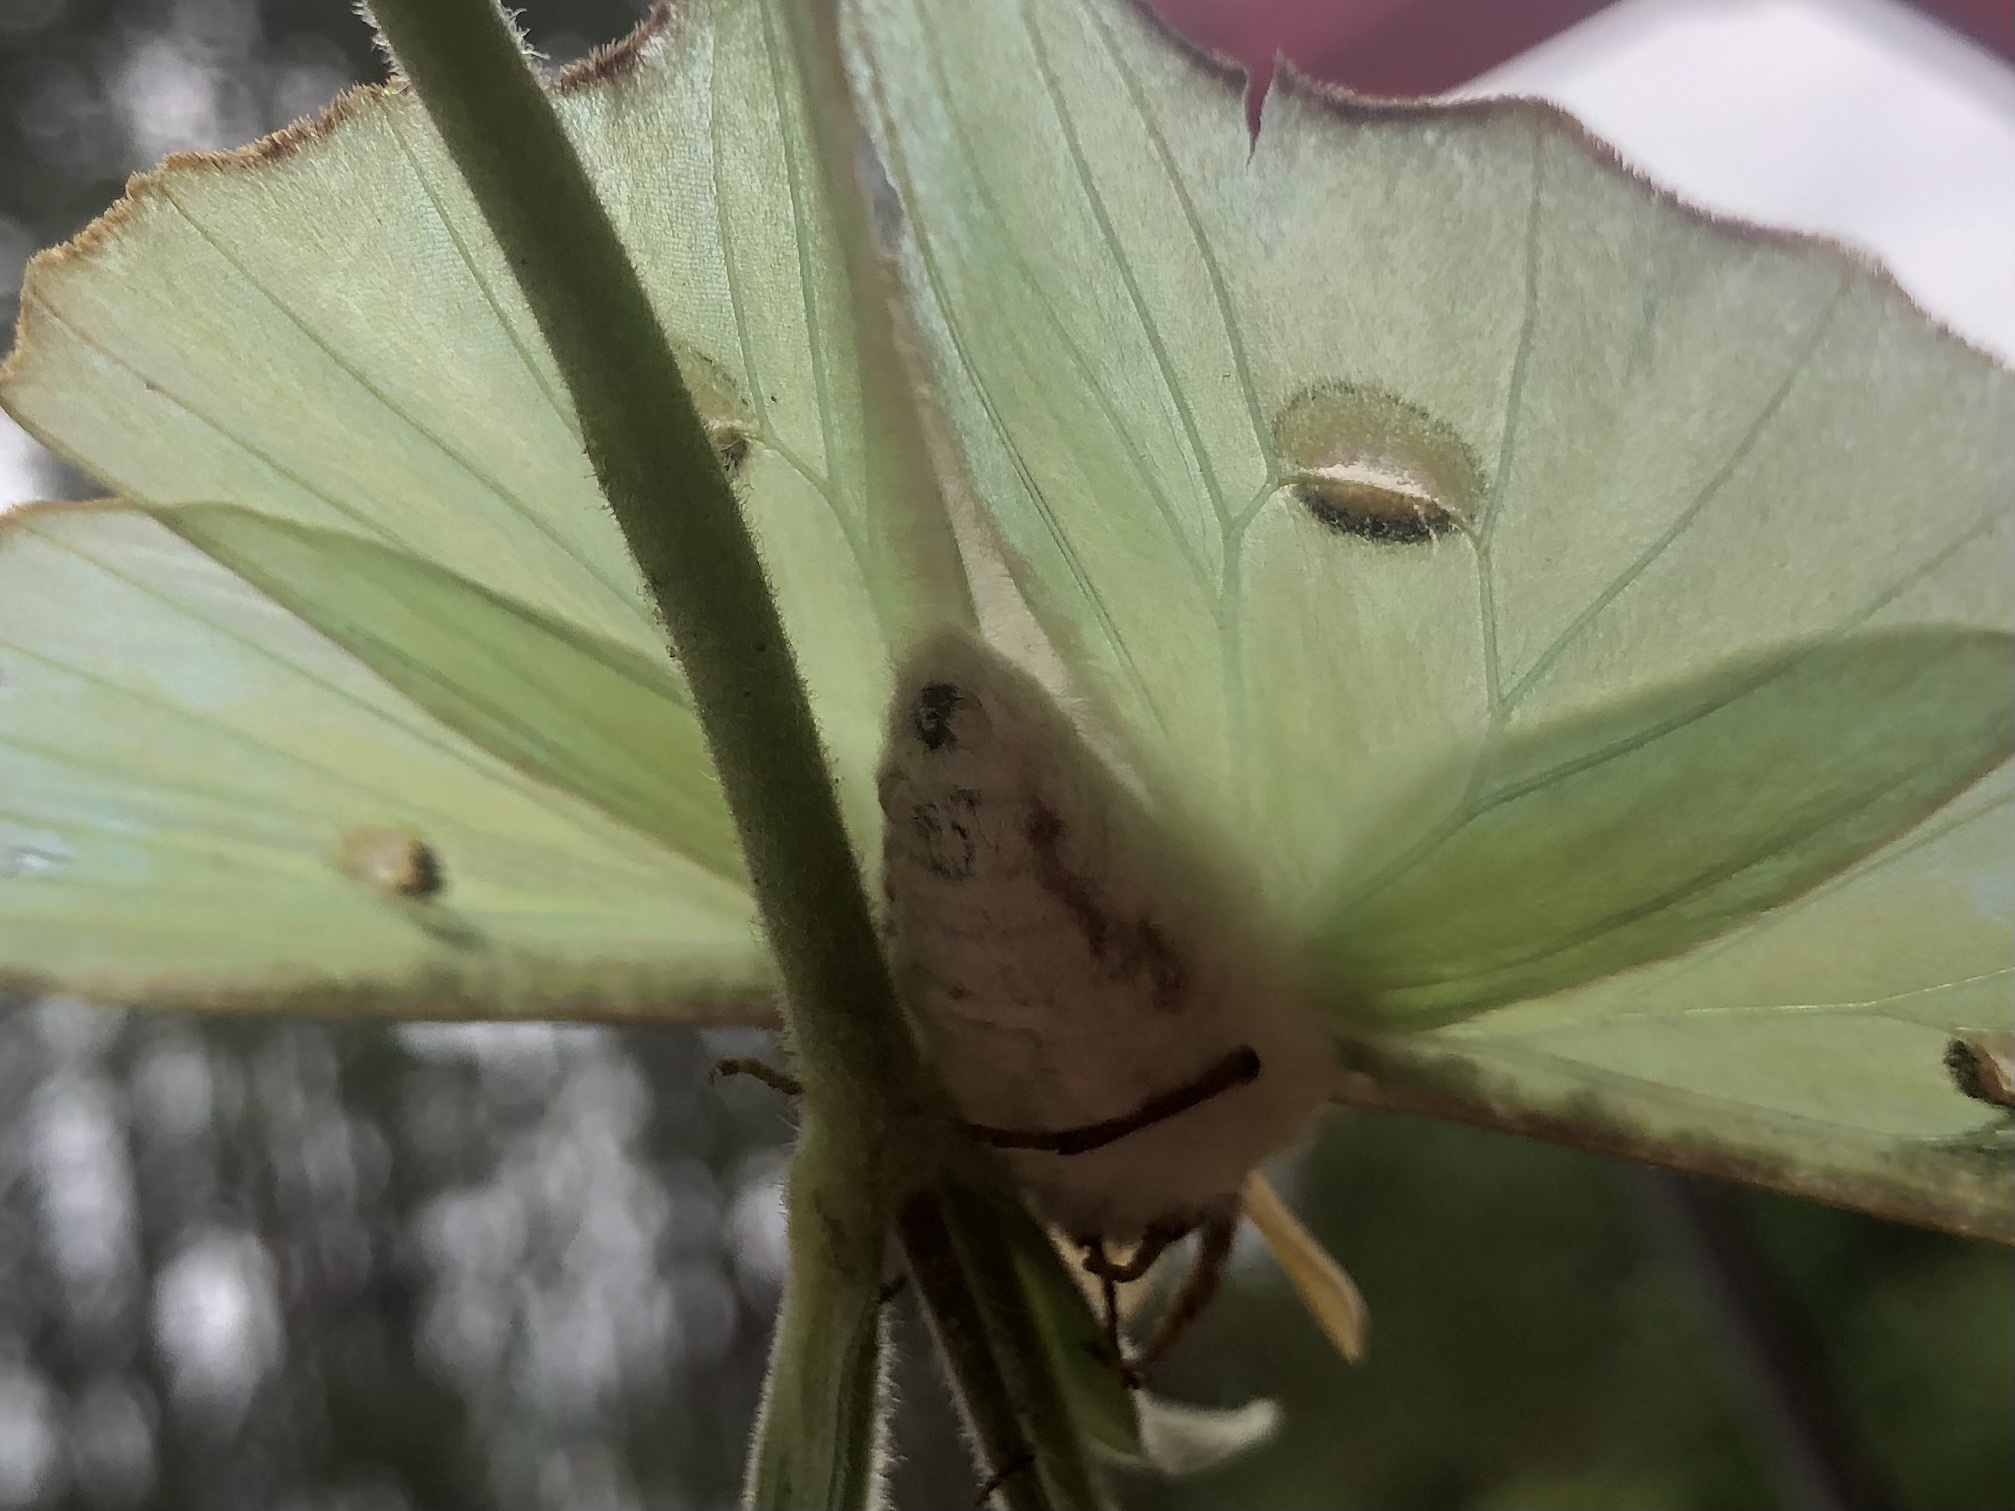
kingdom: Animalia
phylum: Arthropoda
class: Insecta
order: Lepidoptera
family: Saturniidae
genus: Actias
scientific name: Actias luna
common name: Luna moth
